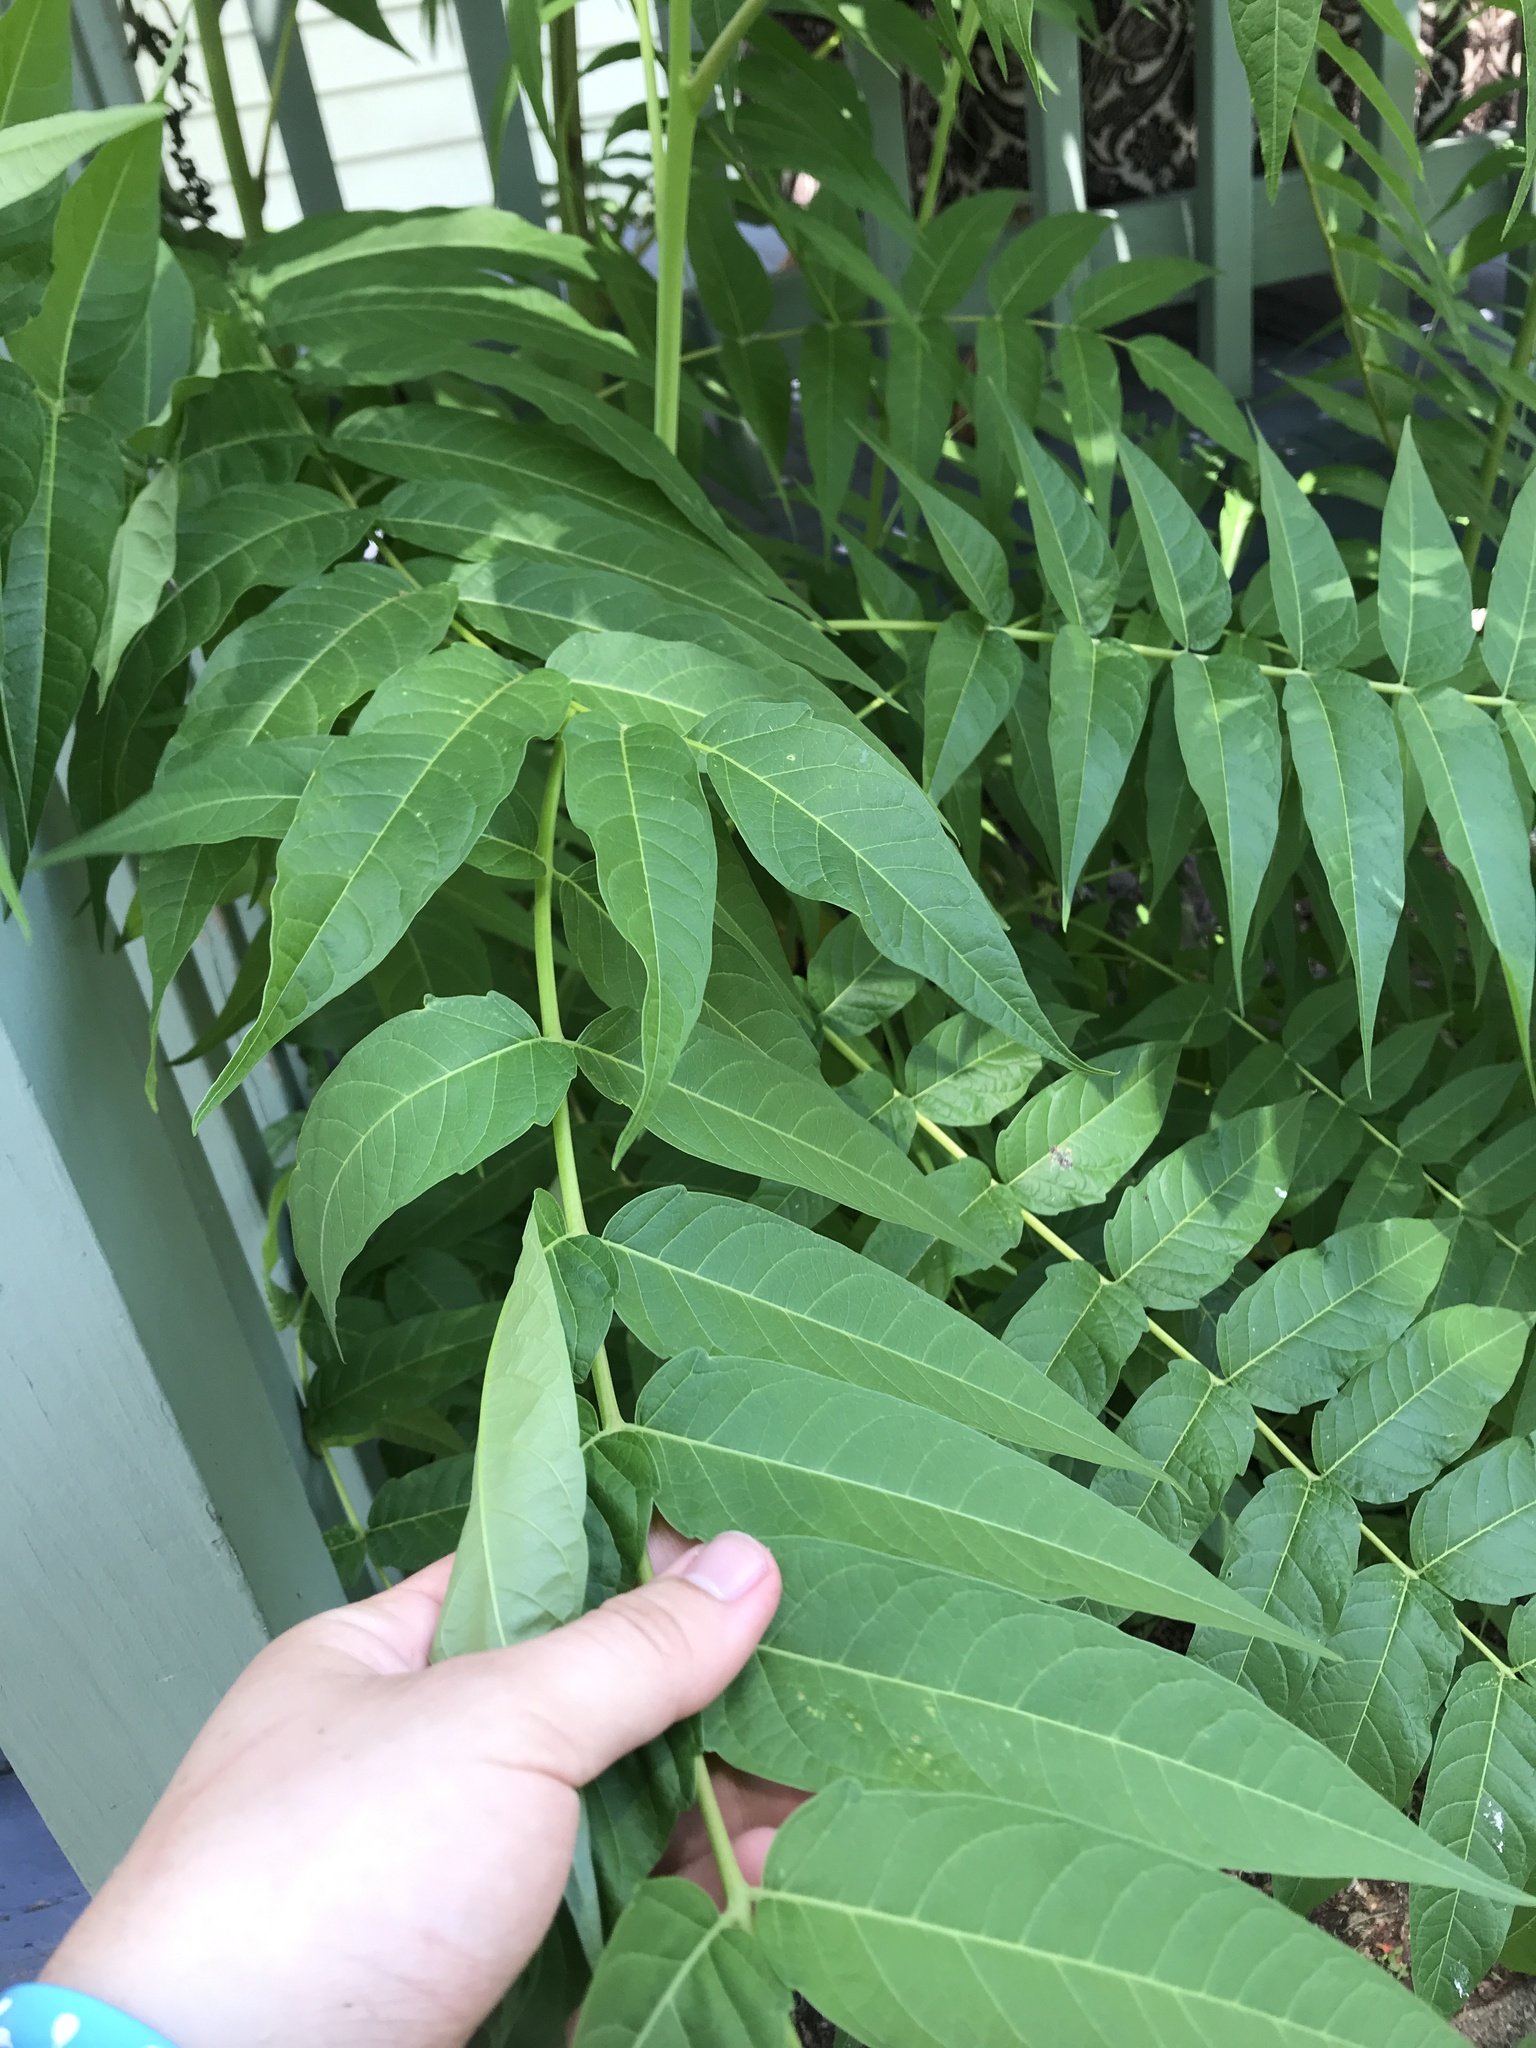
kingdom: Plantae
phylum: Tracheophyta
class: Magnoliopsida
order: Sapindales
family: Simaroubaceae
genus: Ailanthus
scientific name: Ailanthus altissima
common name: Tree-of-heaven
